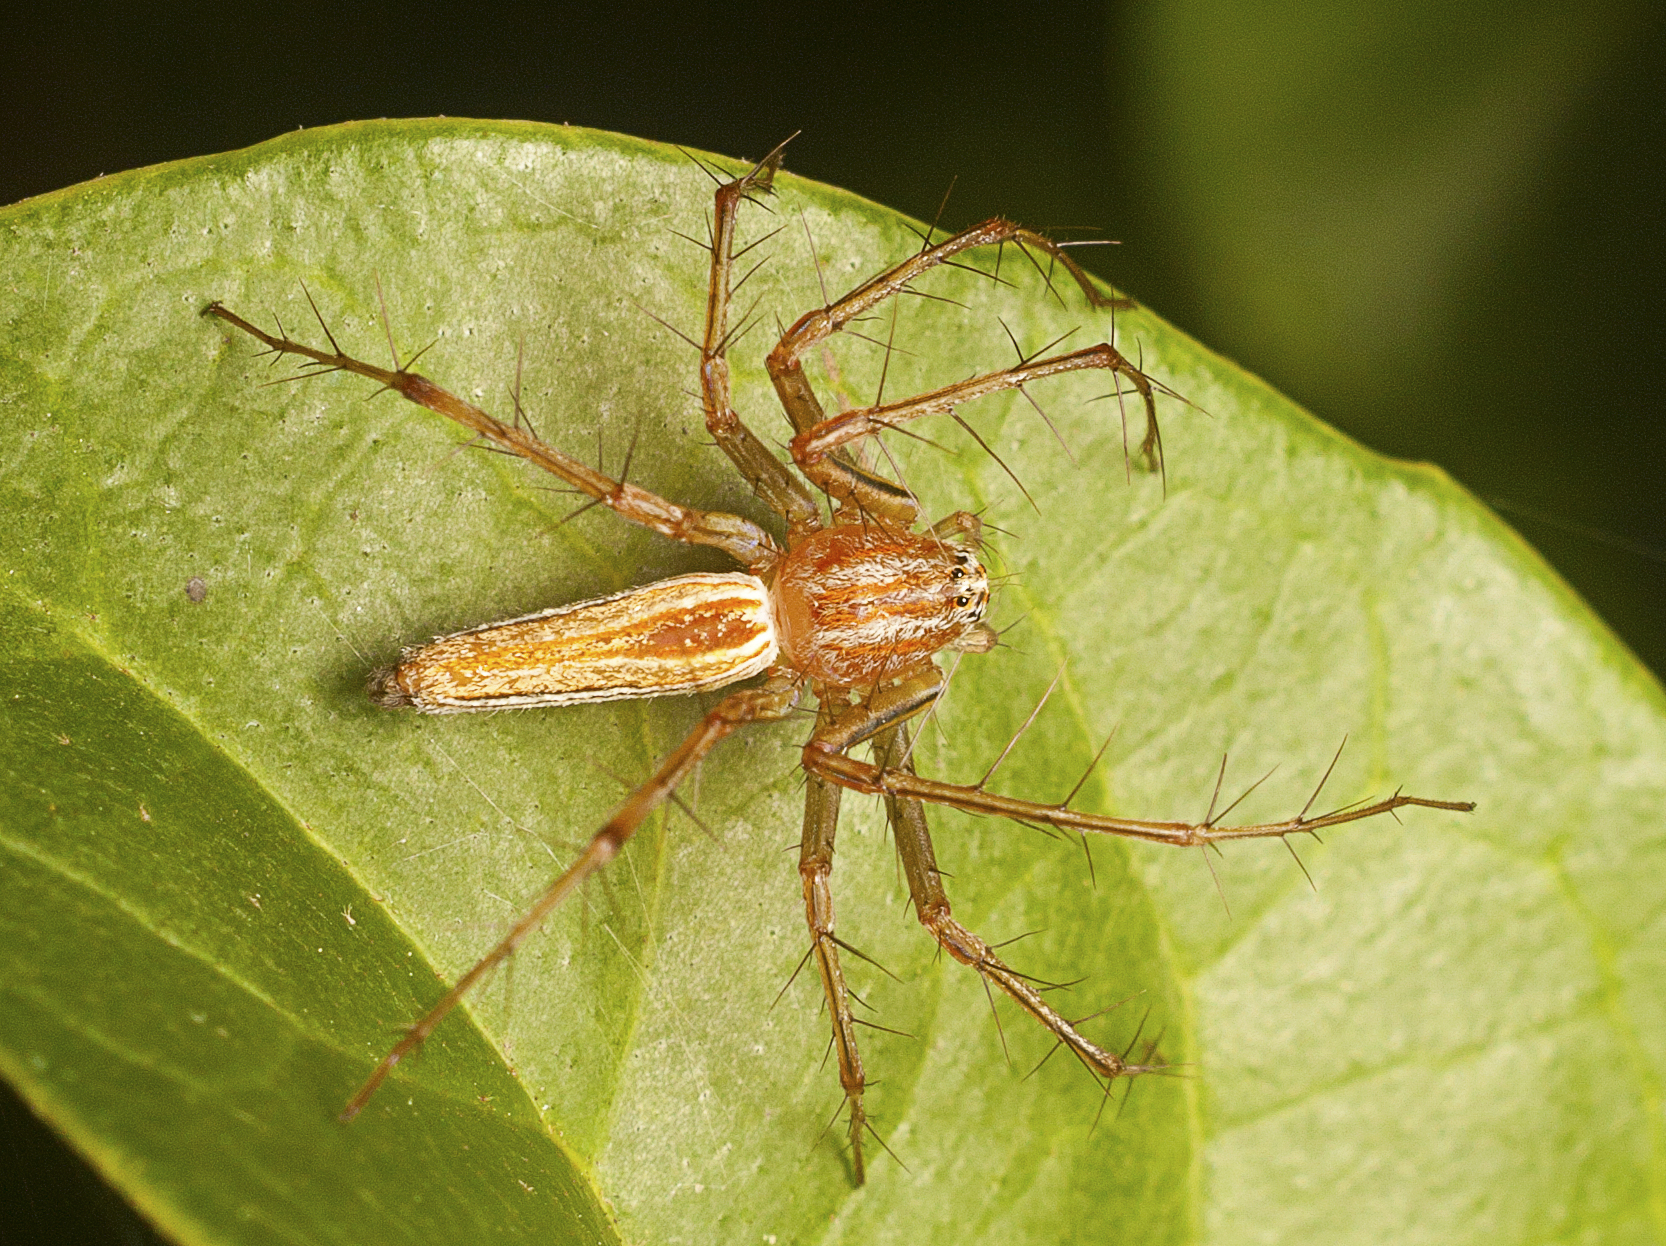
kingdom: Animalia
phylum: Arthropoda
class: Arachnida
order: Araneae
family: Oxyopidae
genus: Oxyopes
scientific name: Oxyopes macilentus
